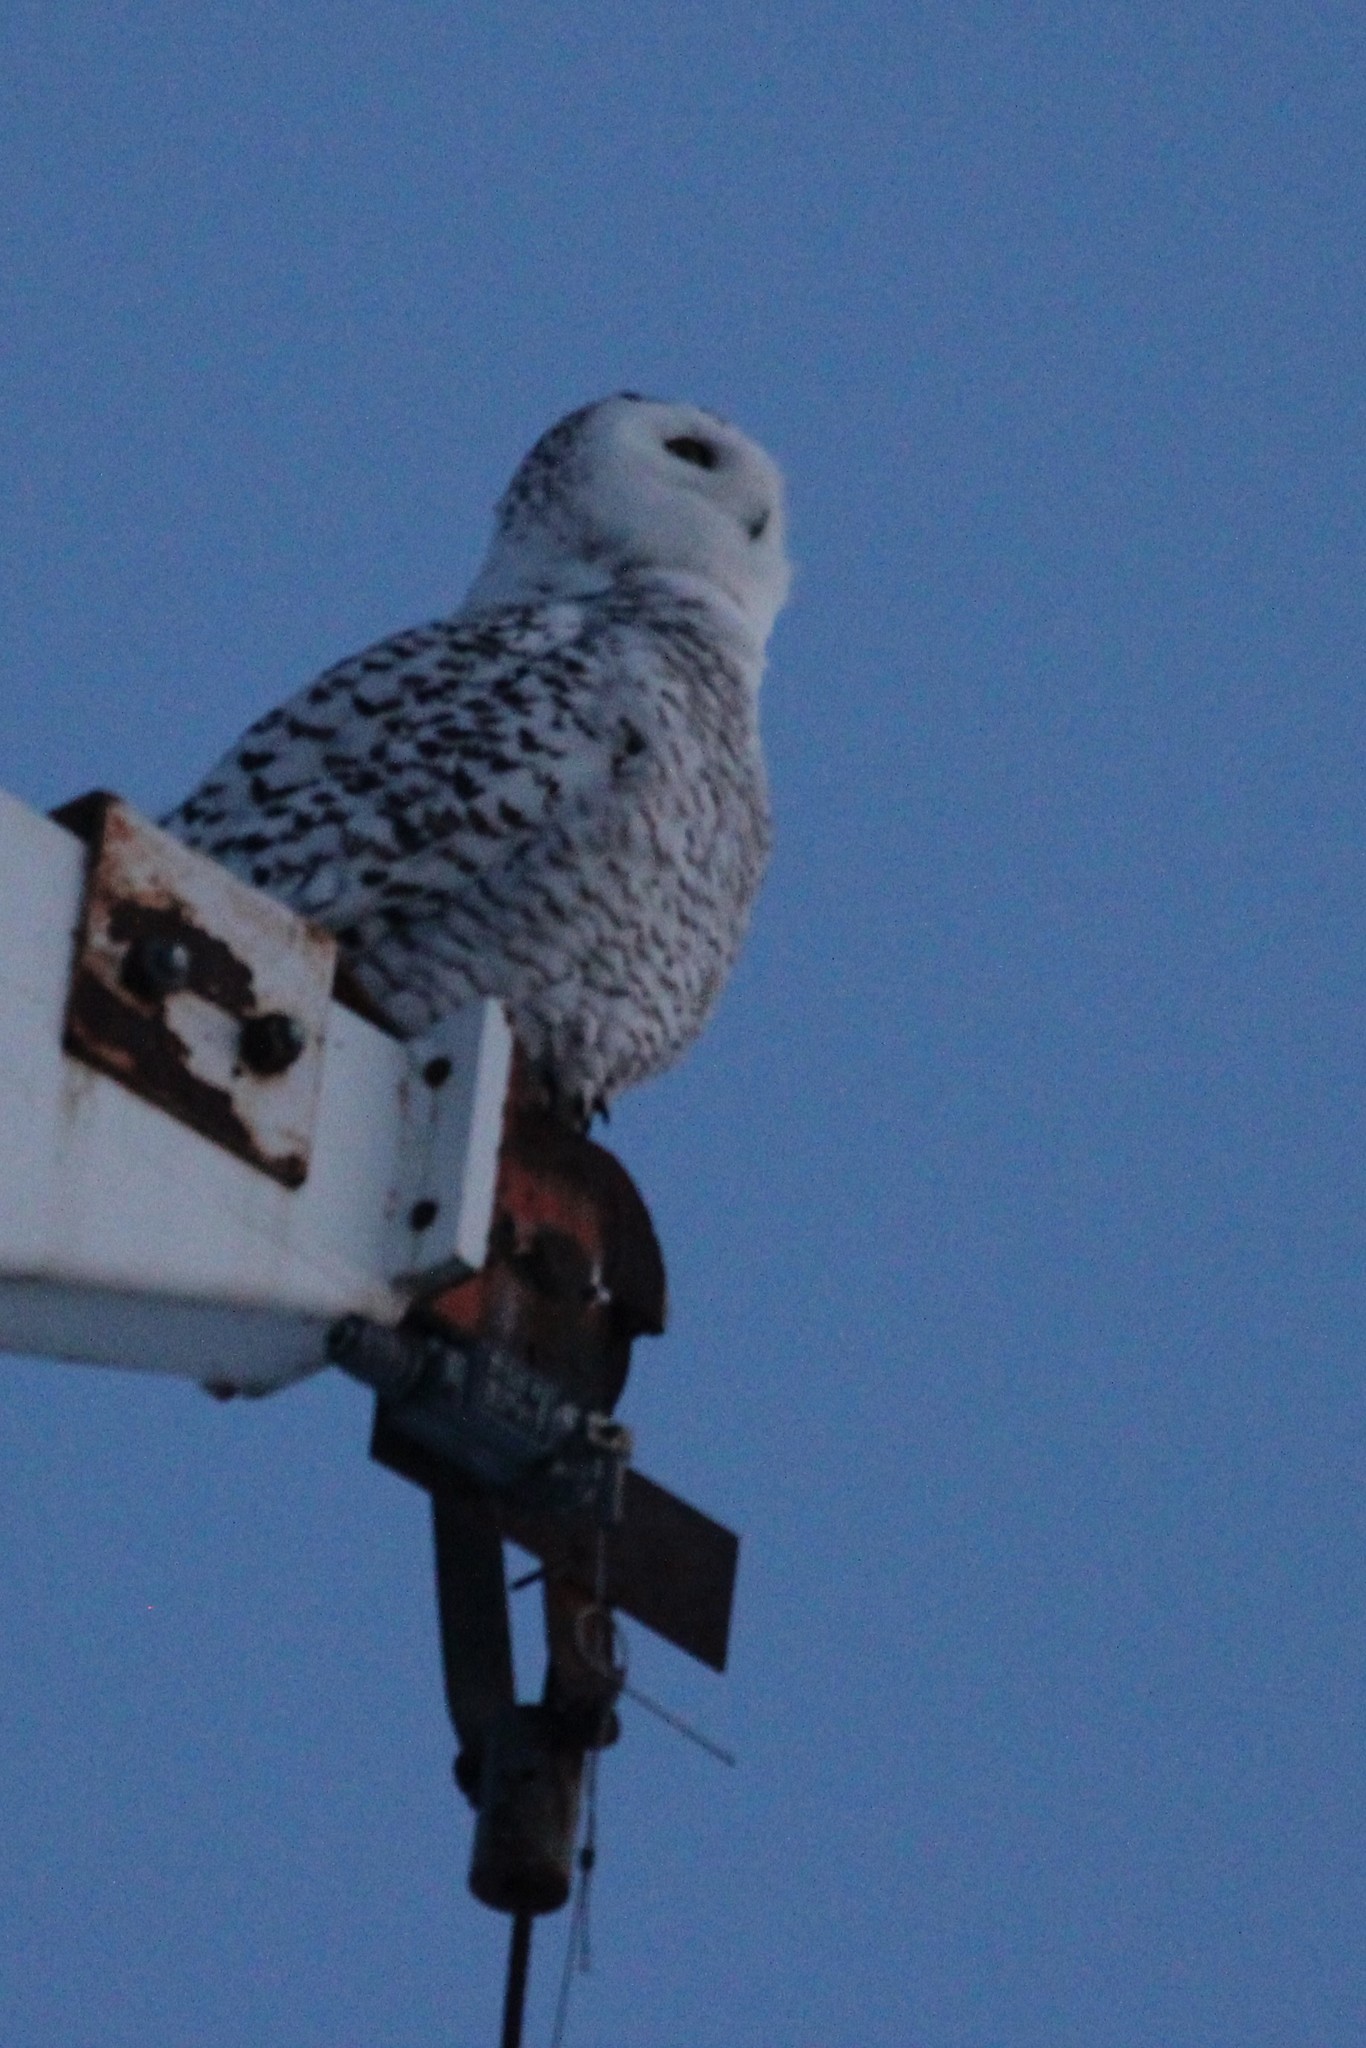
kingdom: Animalia
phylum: Chordata
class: Aves
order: Strigiformes
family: Strigidae
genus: Bubo
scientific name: Bubo scandiacus
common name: Snowy owl
